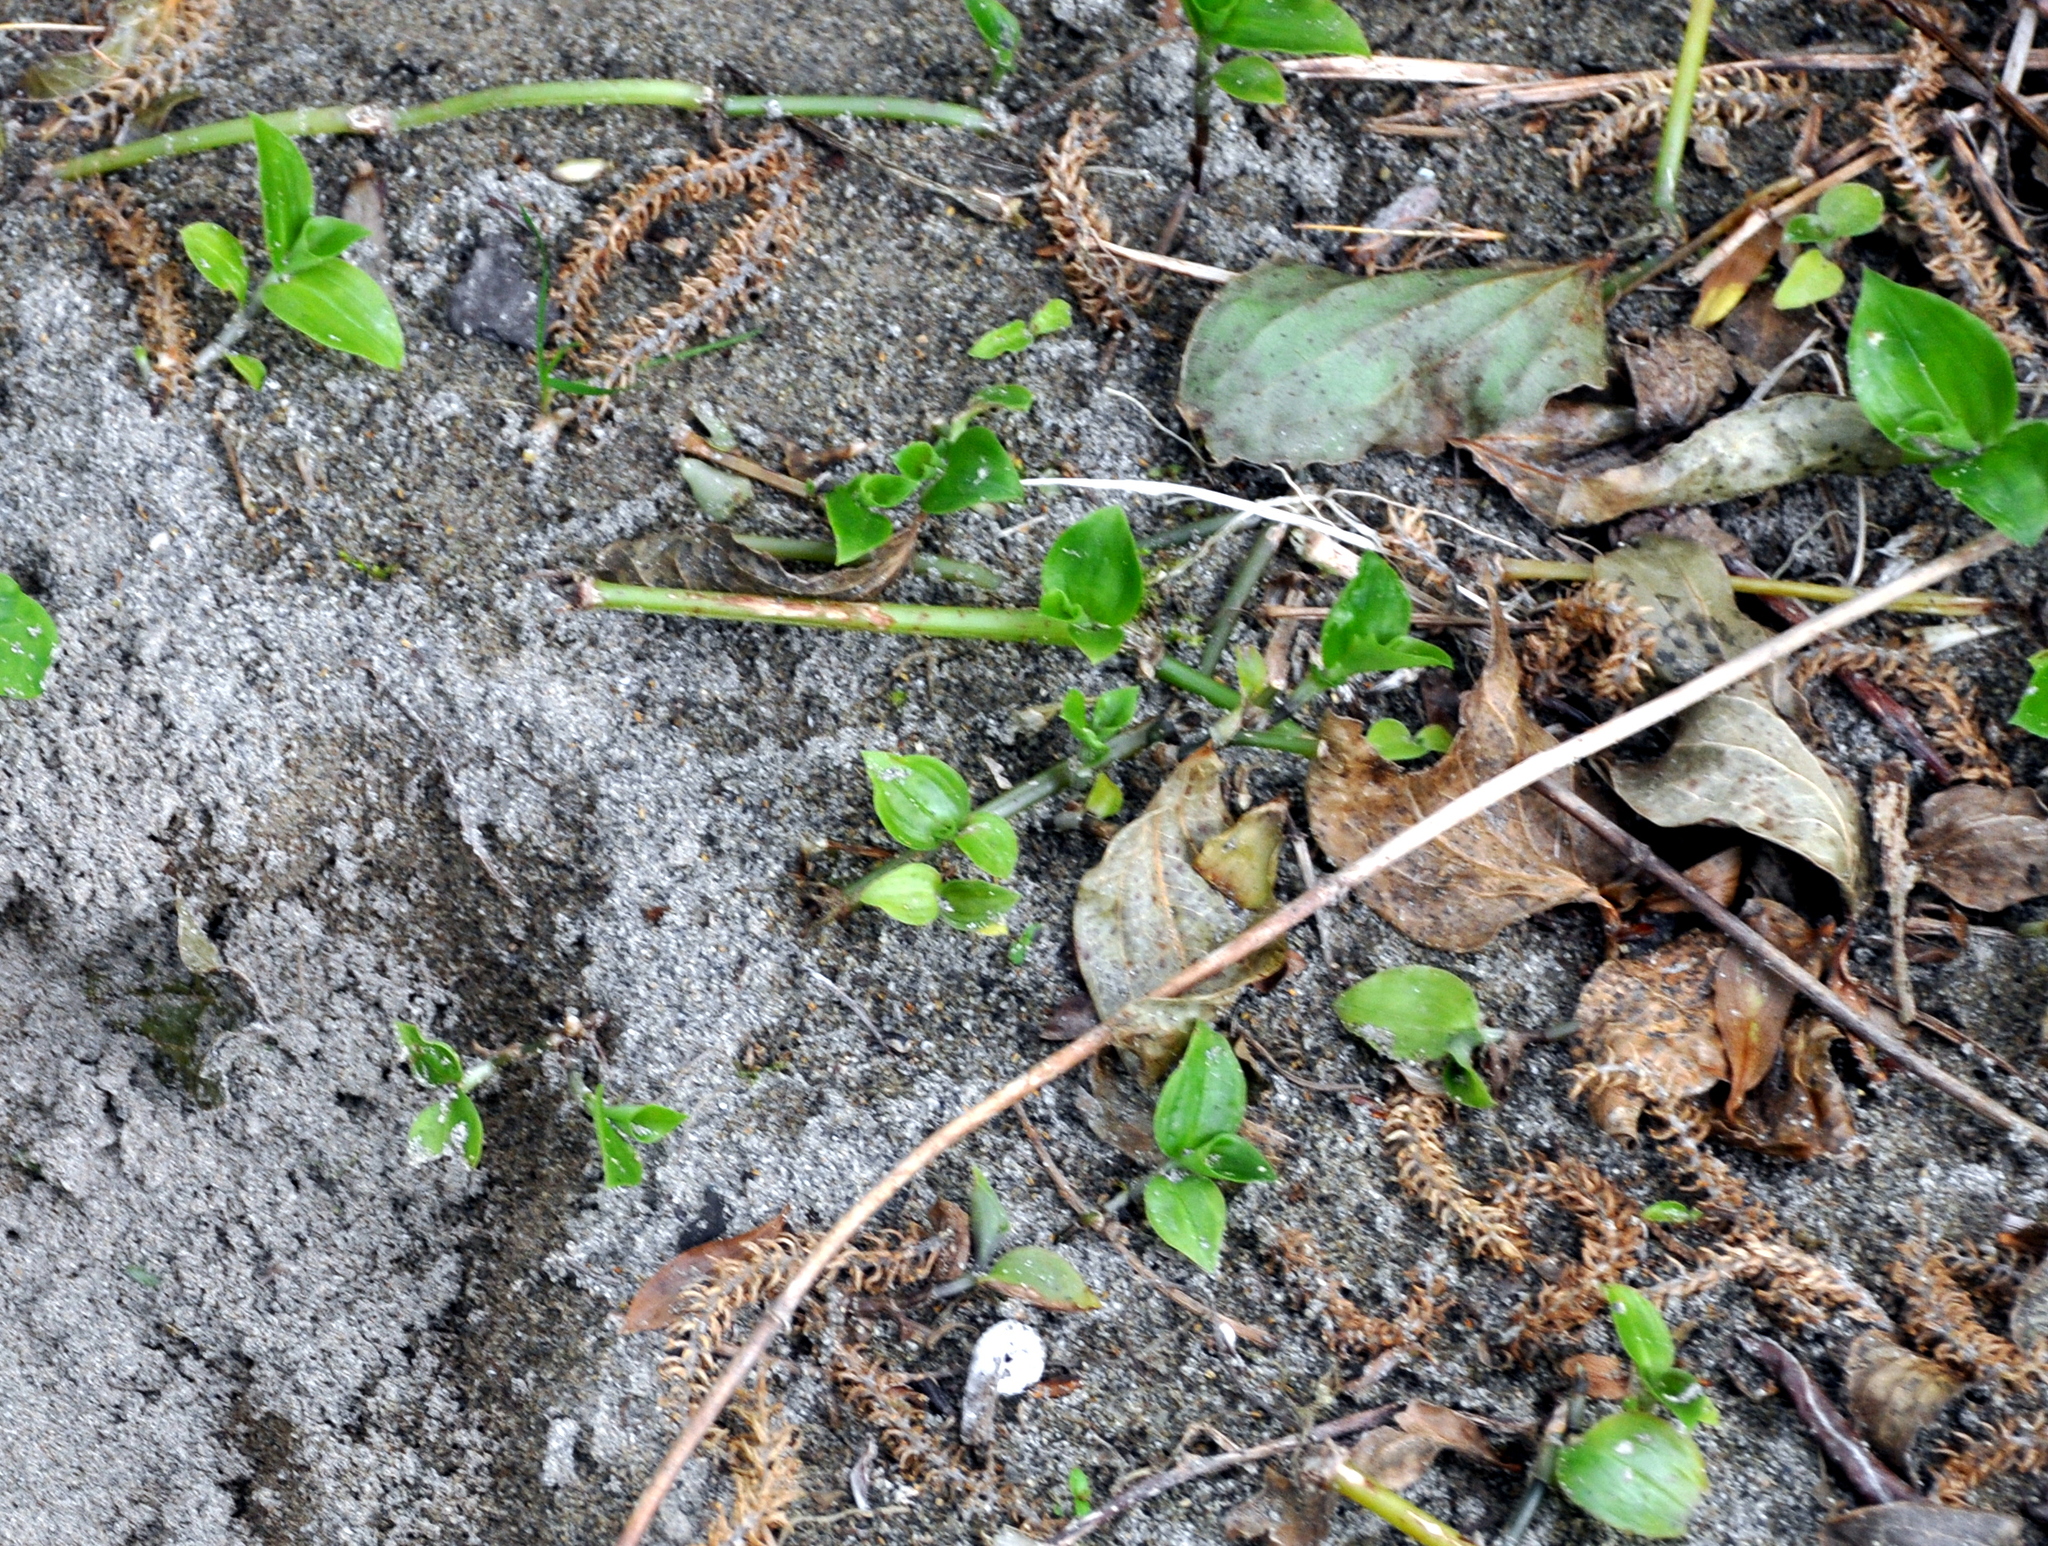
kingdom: Plantae
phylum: Tracheophyta
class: Liliopsida
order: Commelinales
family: Commelinaceae
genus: Tradescantia
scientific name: Tradescantia fluminensis
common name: Wandering-jew
